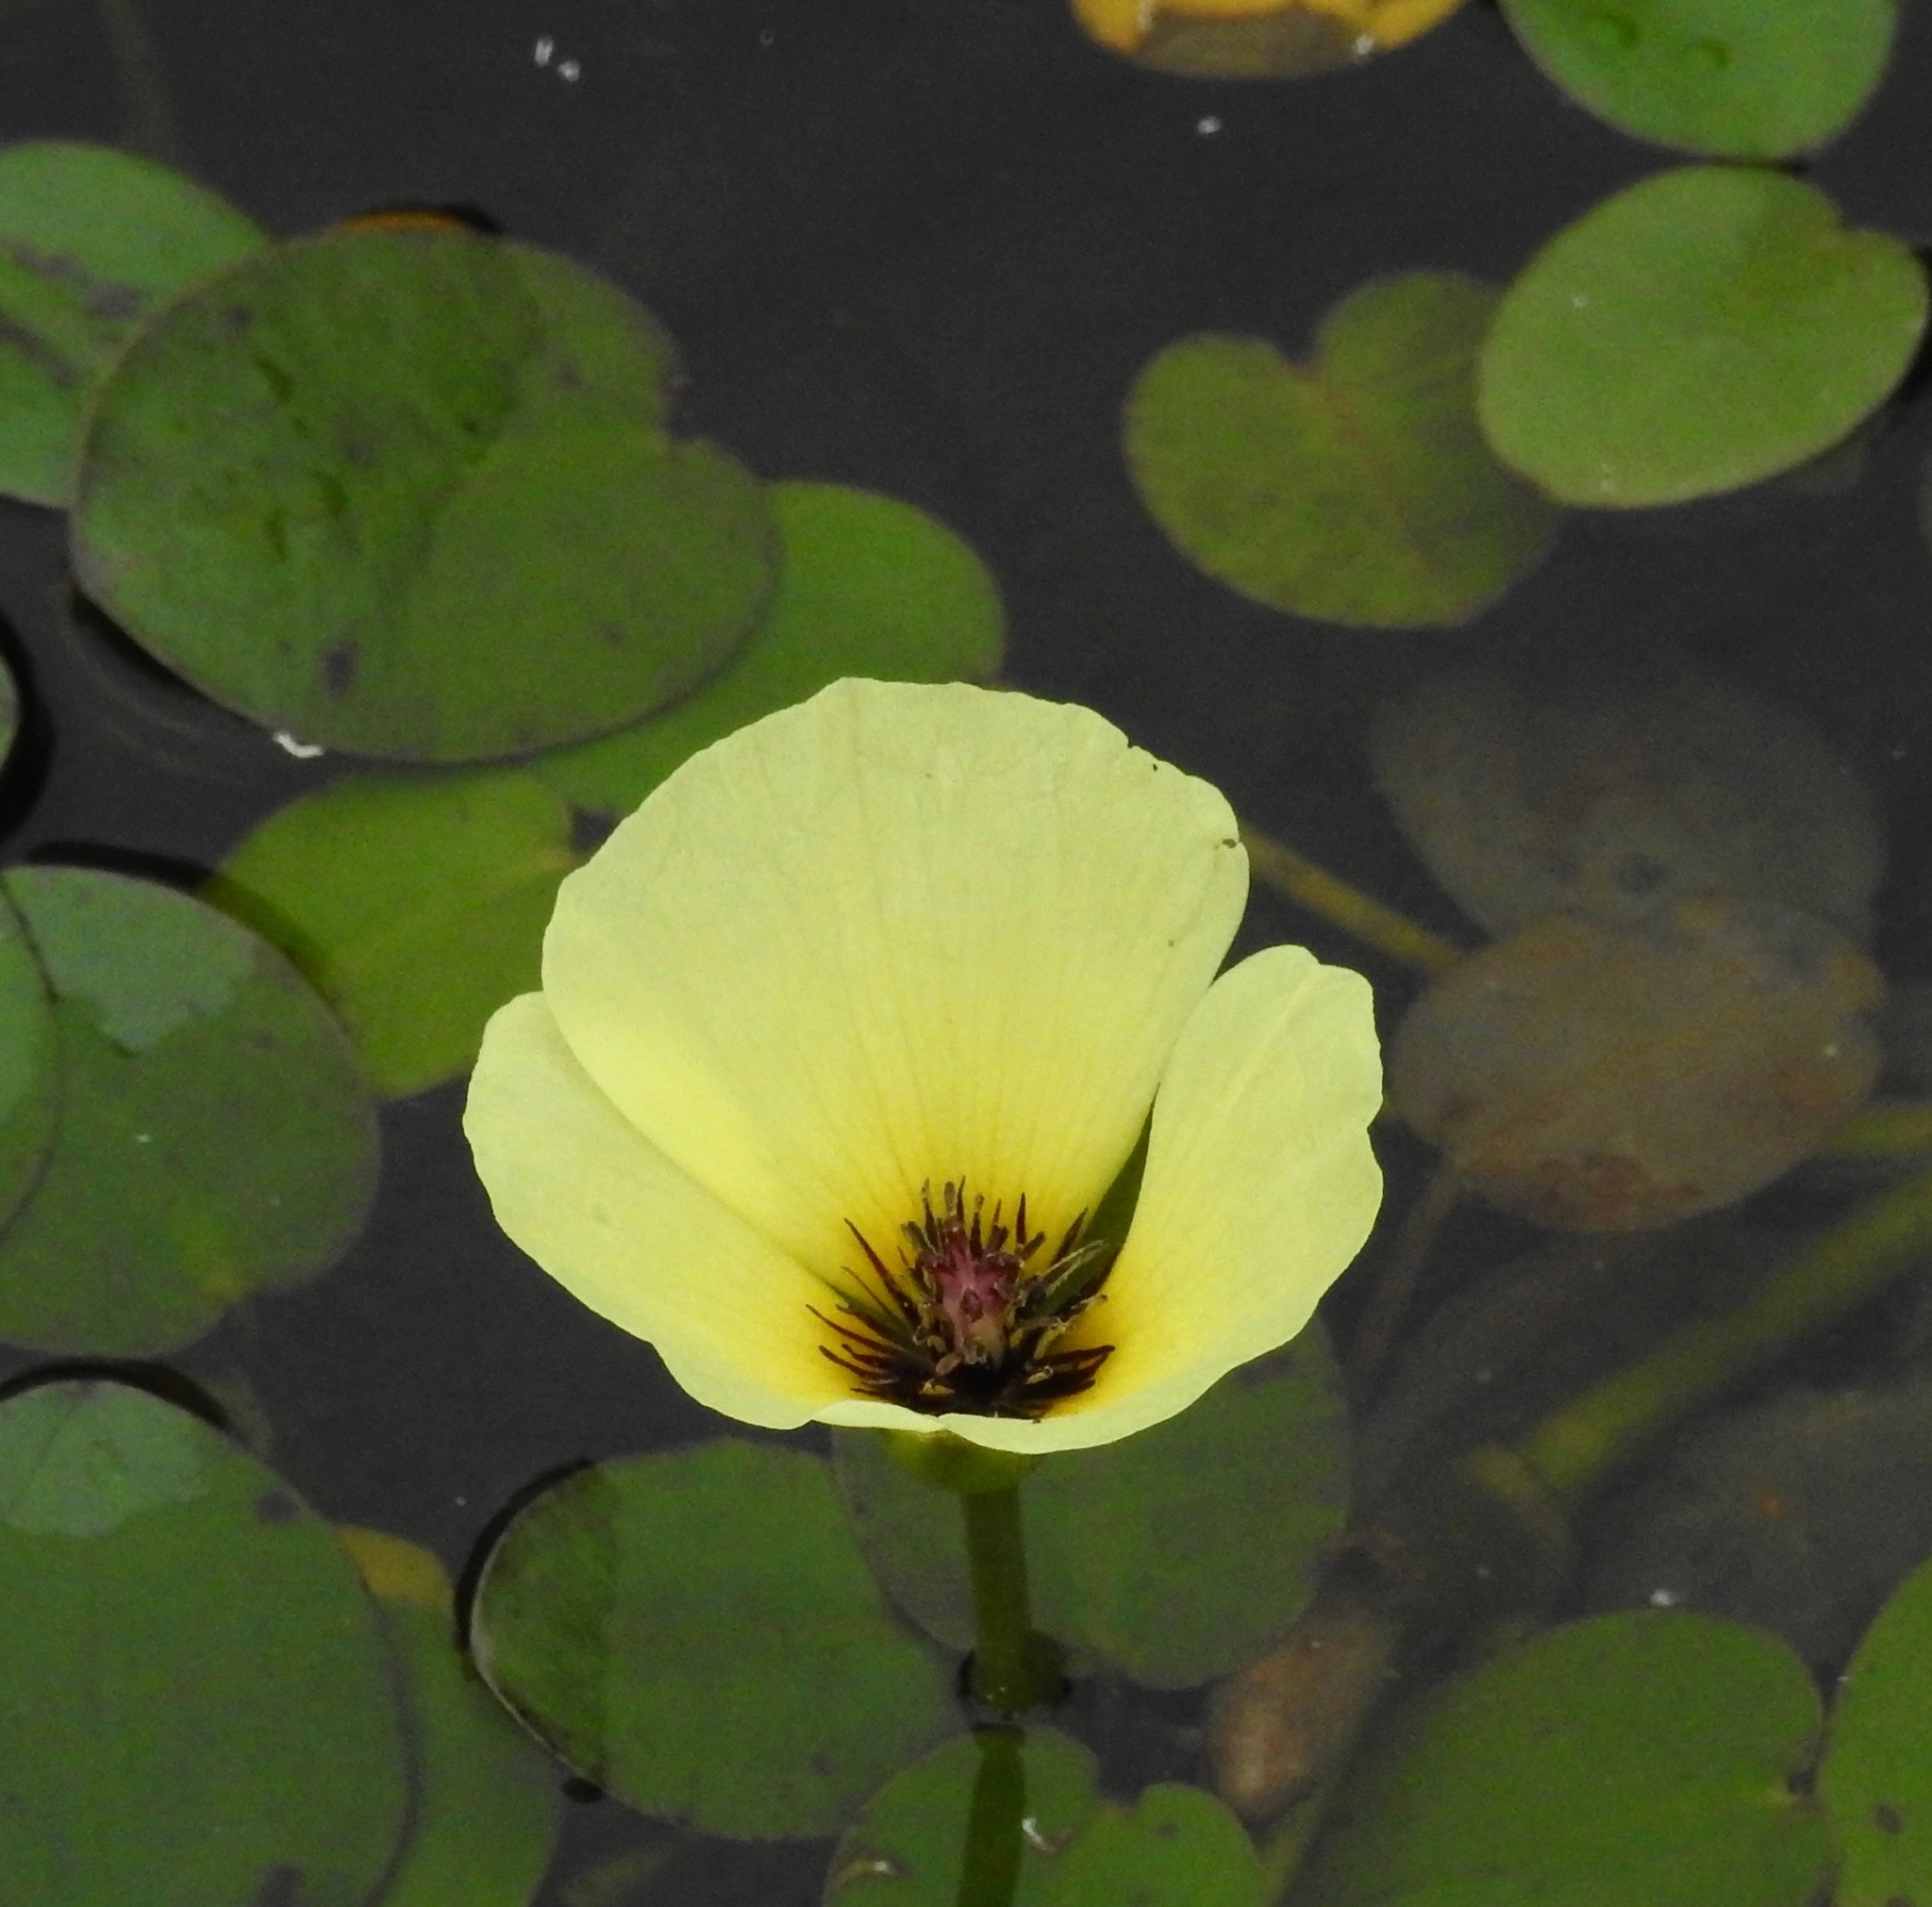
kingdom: Plantae
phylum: Tracheophyta
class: Liliopsida
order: Alismatales
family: Alismataceae
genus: Hydrocleys
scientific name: Hydrocleys nymphoides
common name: Water-poppy
